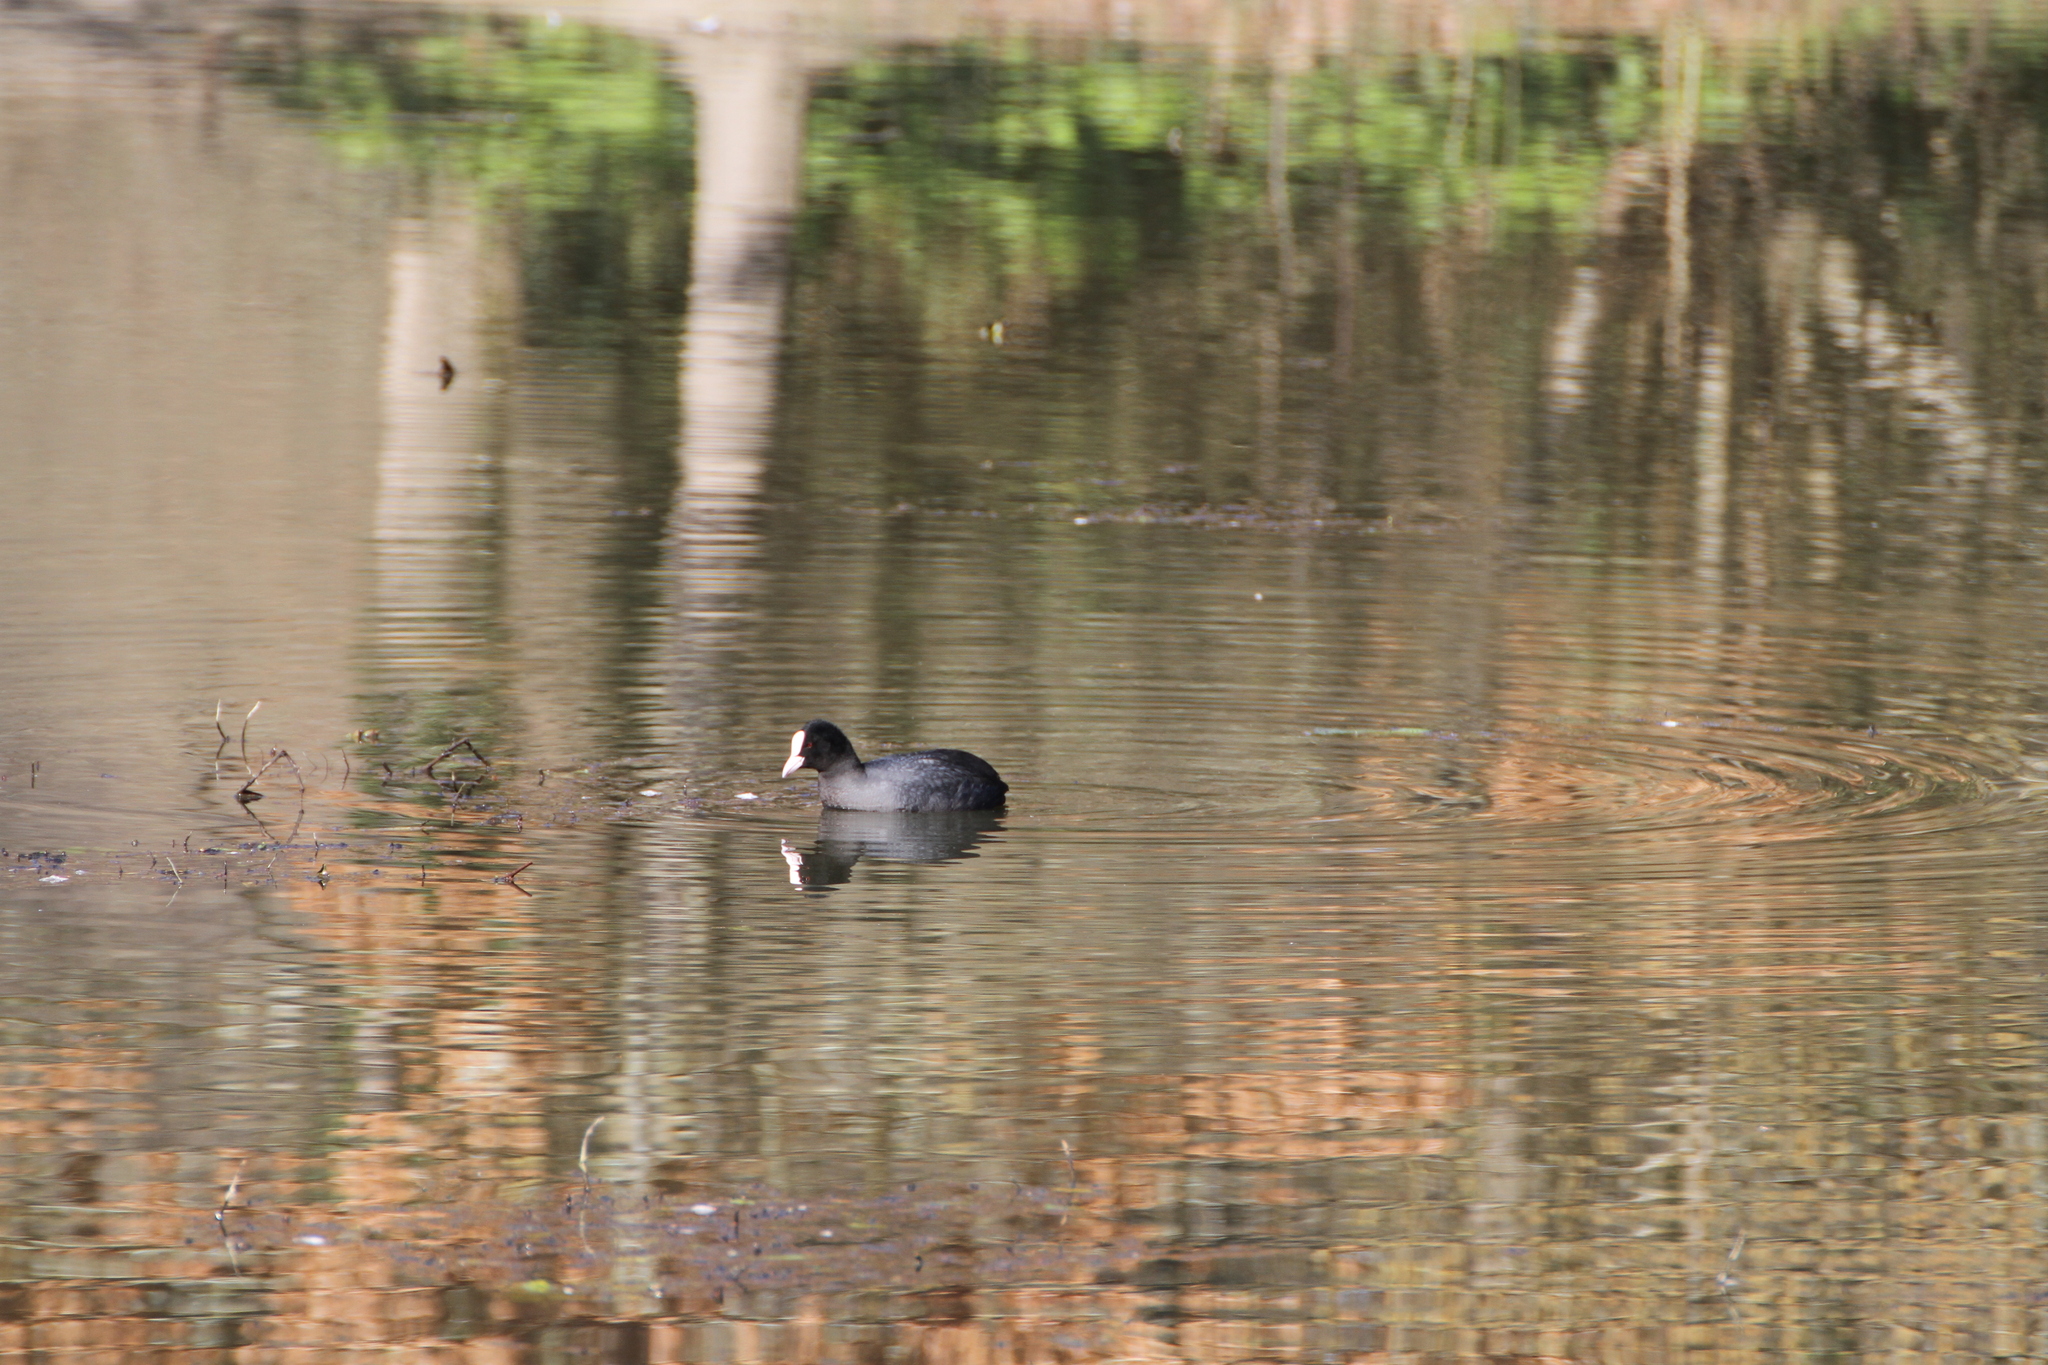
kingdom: Animalia
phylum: Chordata
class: Aves
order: Gruiformes
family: Rallidae
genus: Fulica
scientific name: Fulica atra
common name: Eurasian coot
